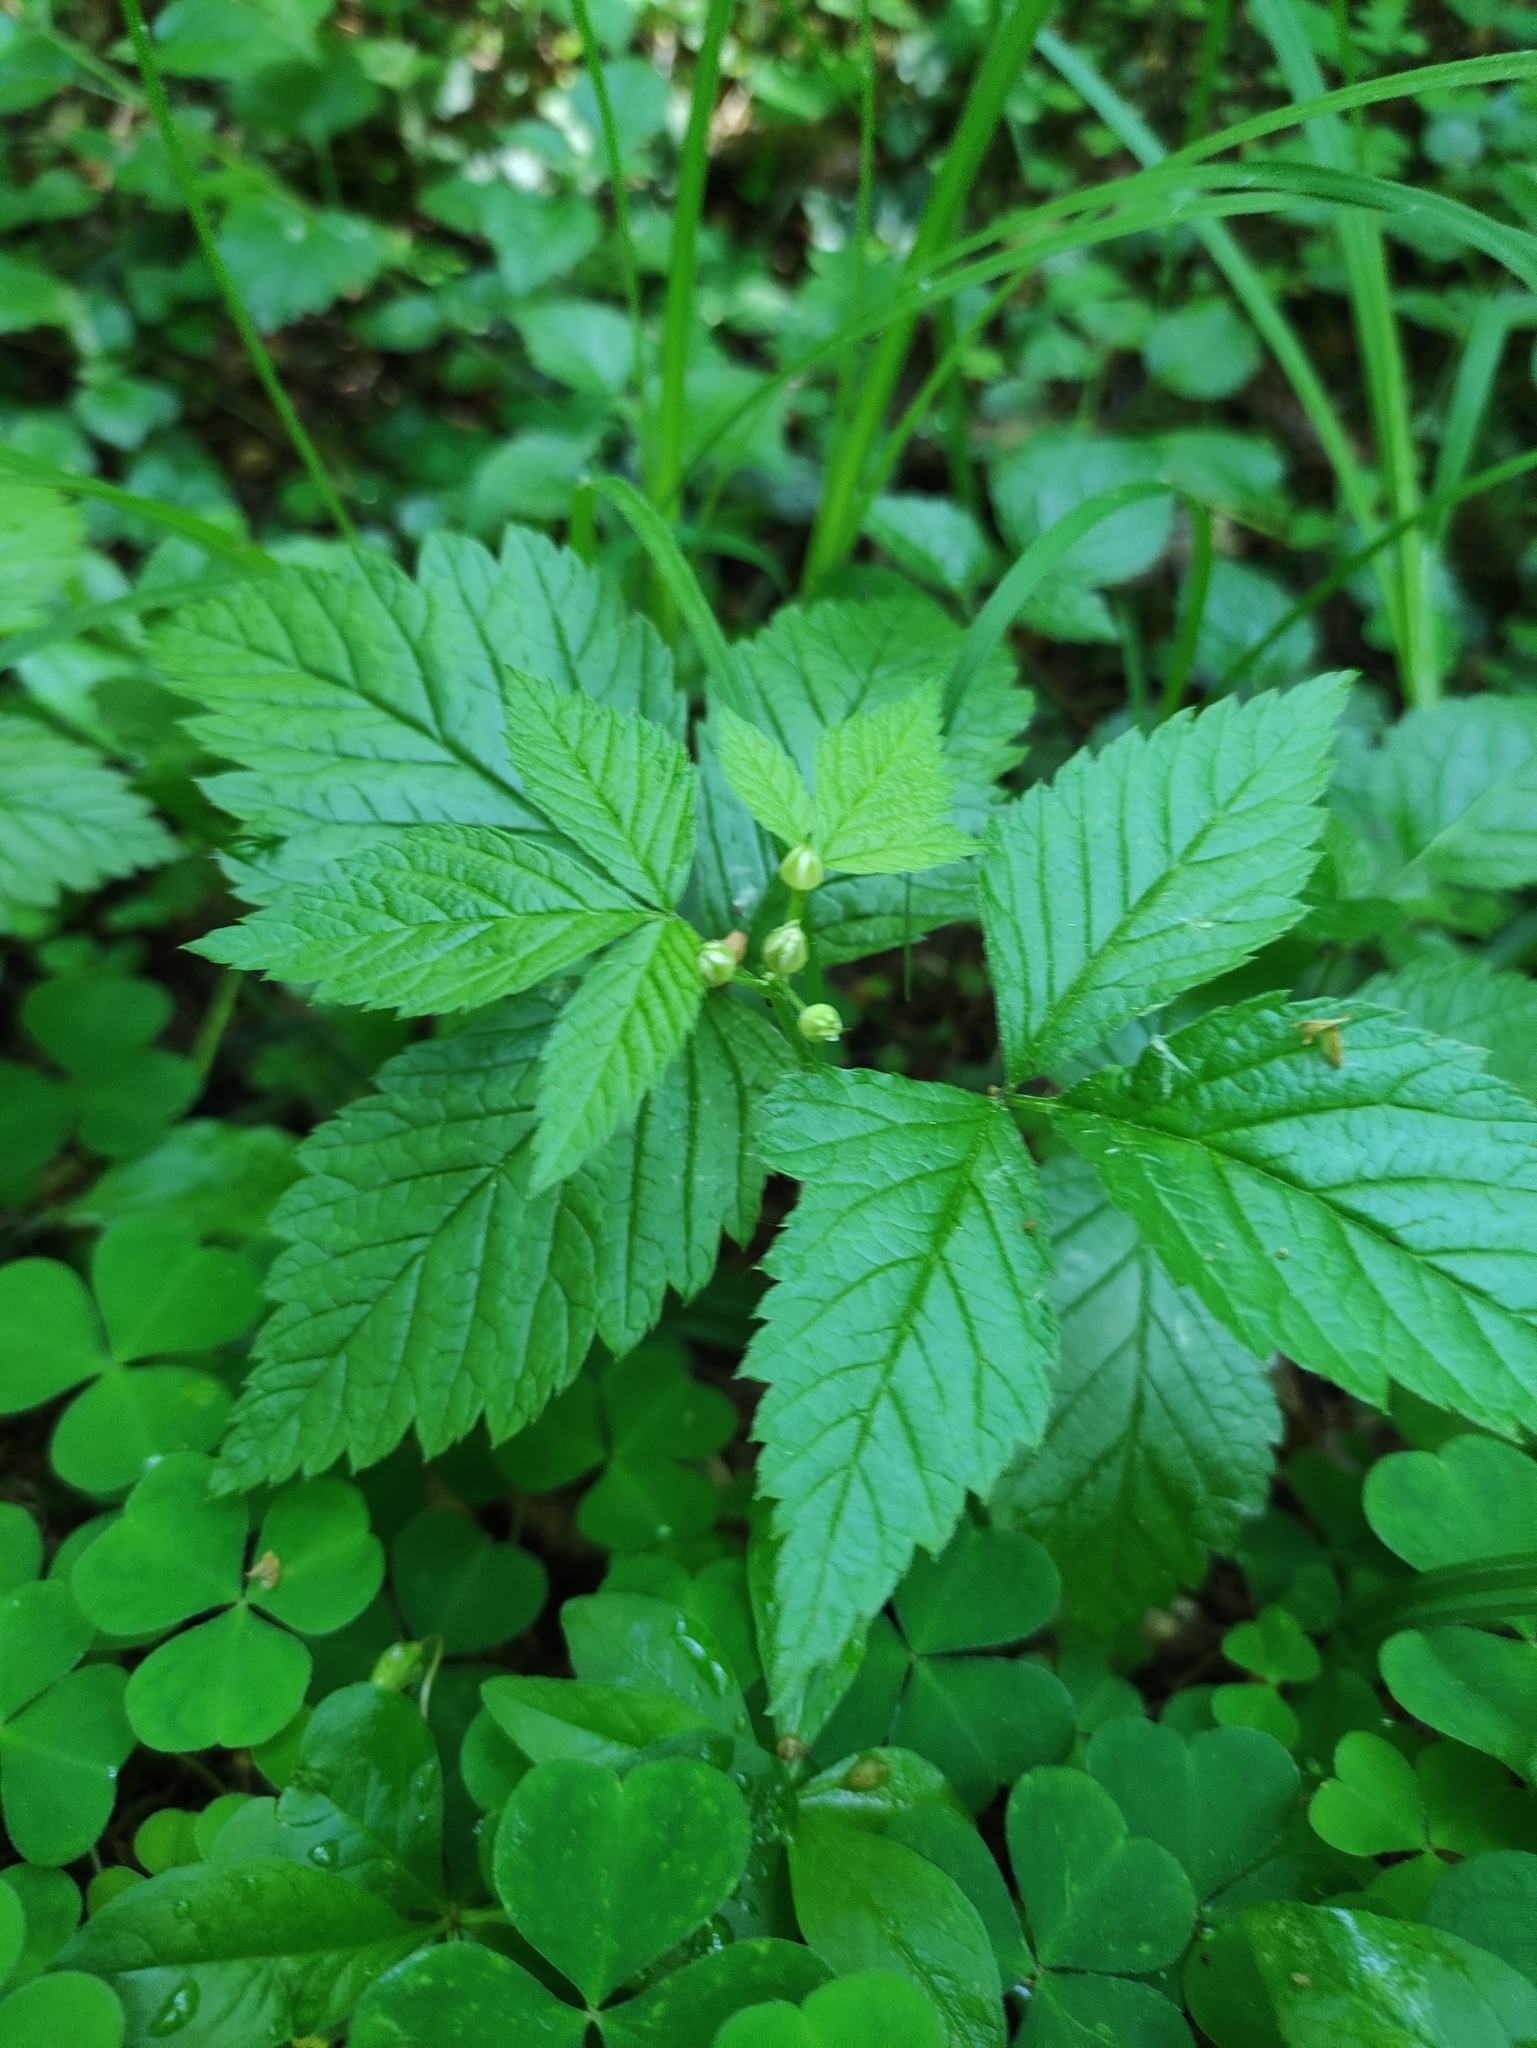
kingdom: Plantae
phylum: Tracheophyta
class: Magnoliopsida
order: Rosales
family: Rosaceae
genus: Rubus
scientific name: Rubus saxatilis
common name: Stone bramble
